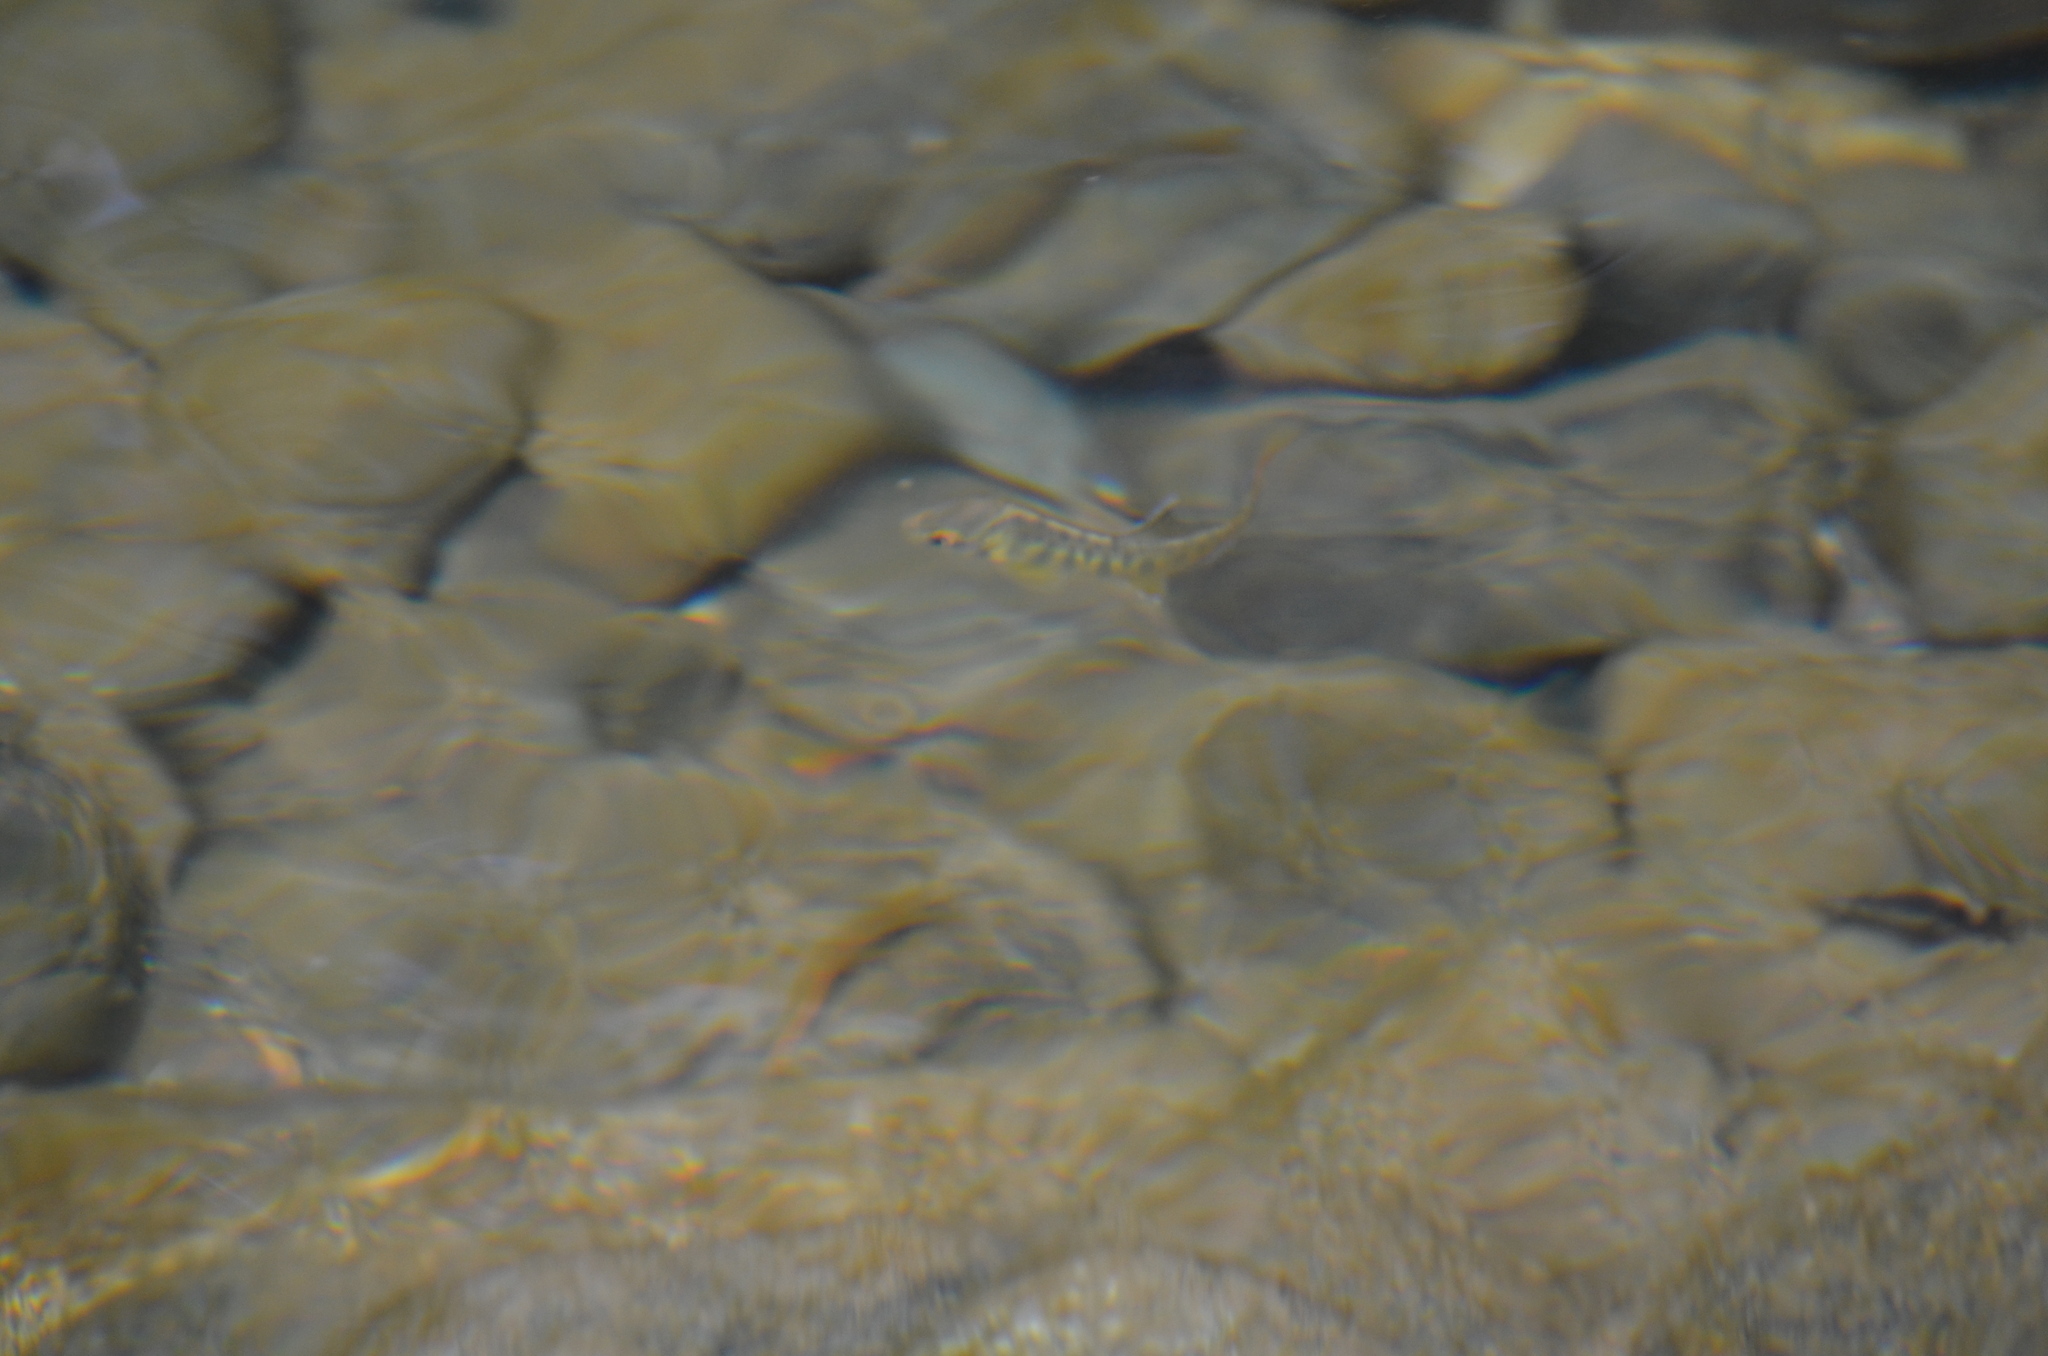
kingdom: Animalia
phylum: Chordata
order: Salmoniformes
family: Salmonidae
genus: Oncorhynchus
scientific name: Oncorhynchus kisutch
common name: Coho salmon
